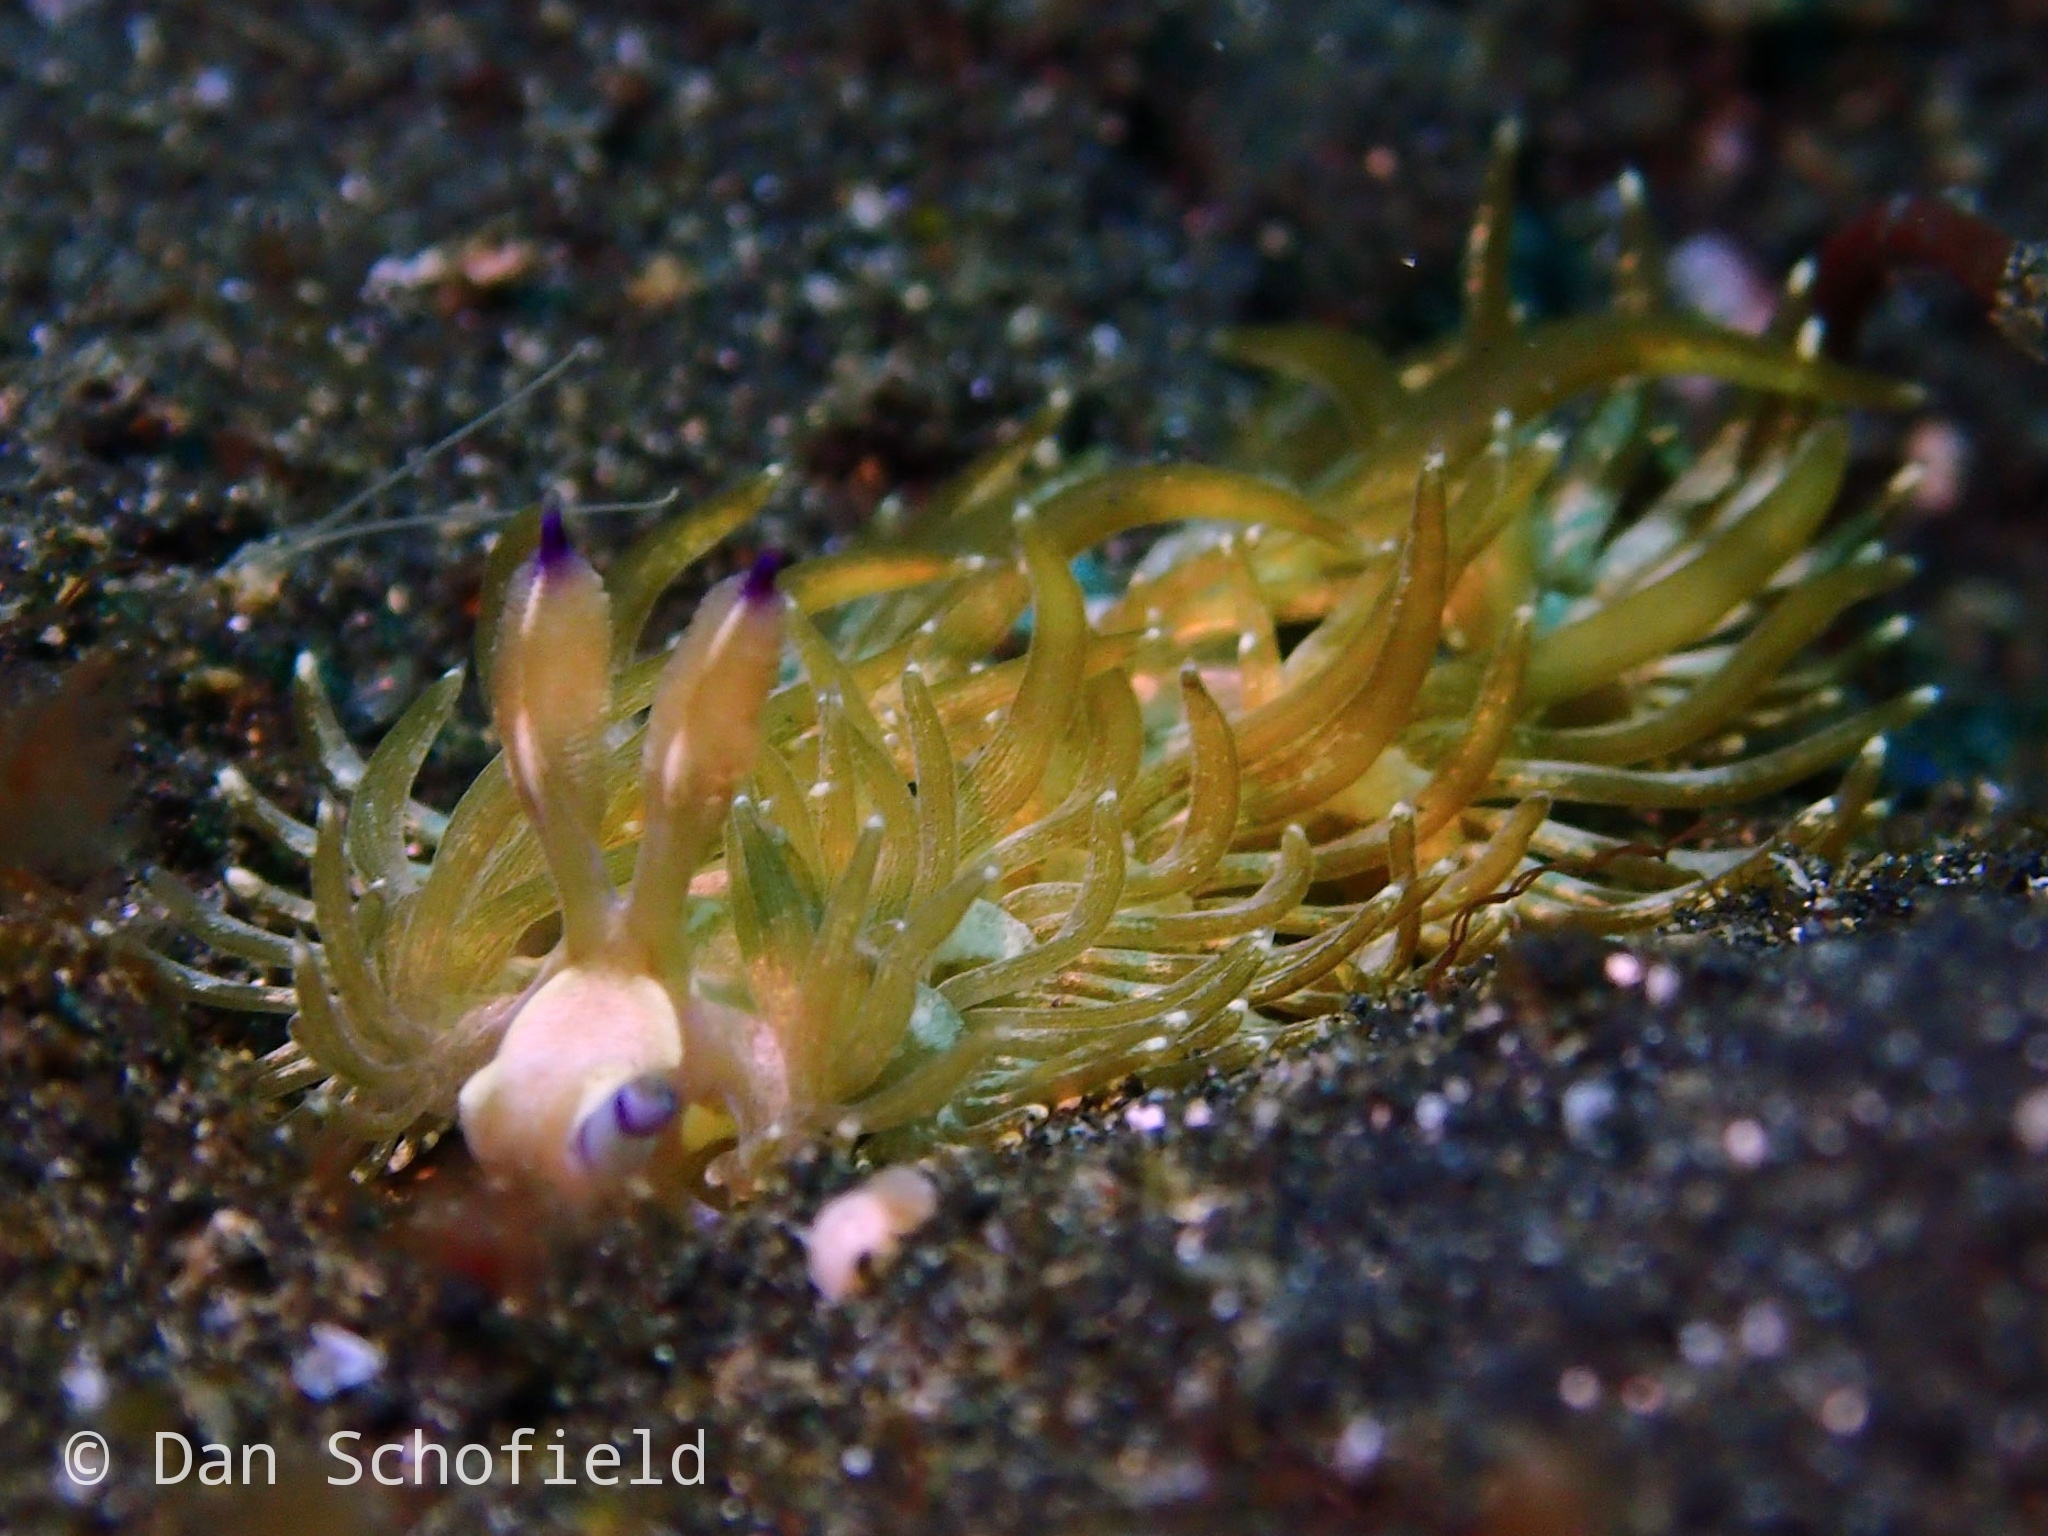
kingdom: Animalia
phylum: Mollusca
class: Gastropoda
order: Nudibranchia
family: Facelinidae
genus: Pteraeolidia
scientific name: Pteraeolidia semperi
